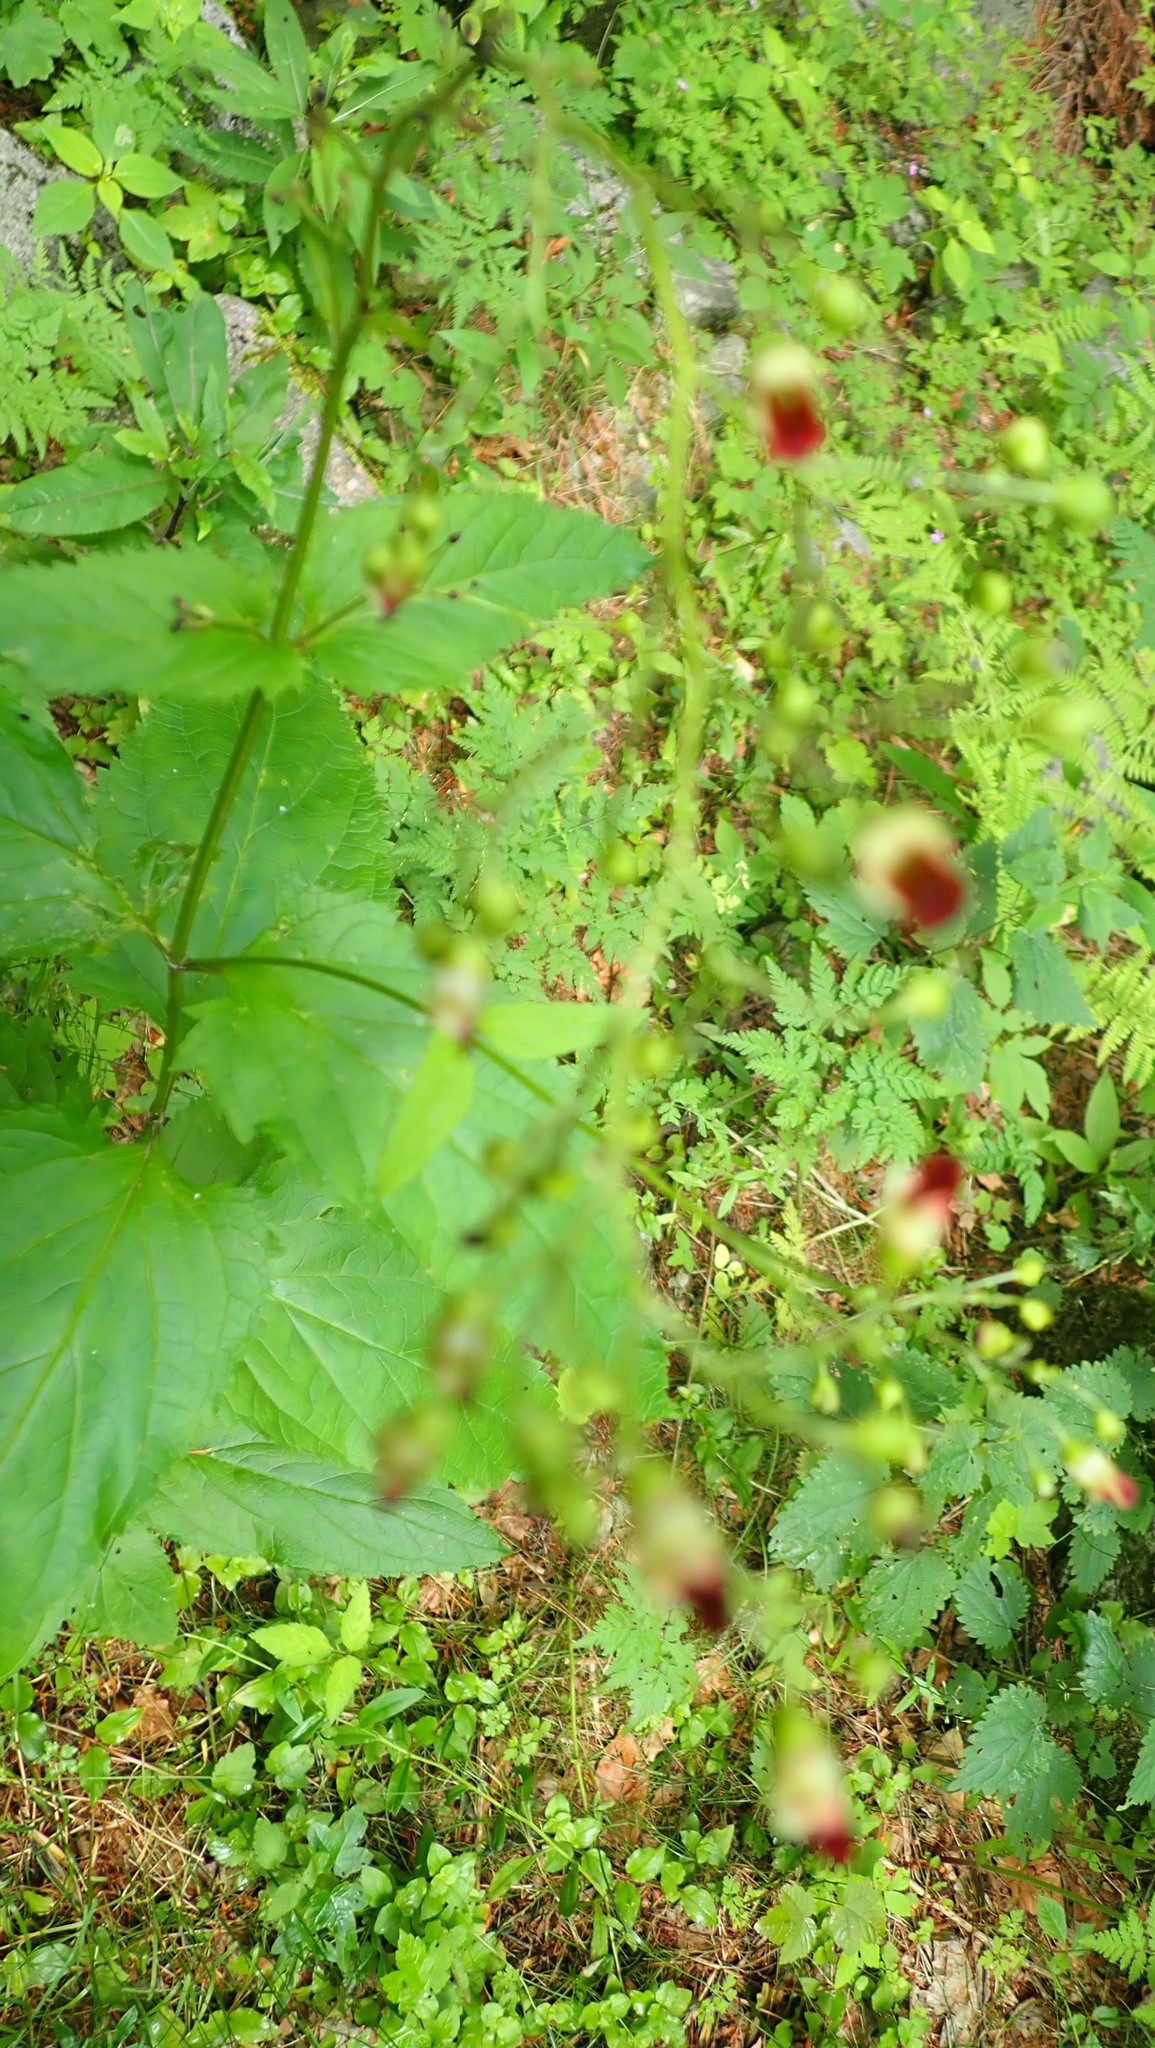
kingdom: Plantae
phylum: Tracheophyta
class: Magnoliopsida
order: Lamiales
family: Scrophulariaceae
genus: Scrophularia
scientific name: Scrophularia nodosa
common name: Common figwort
